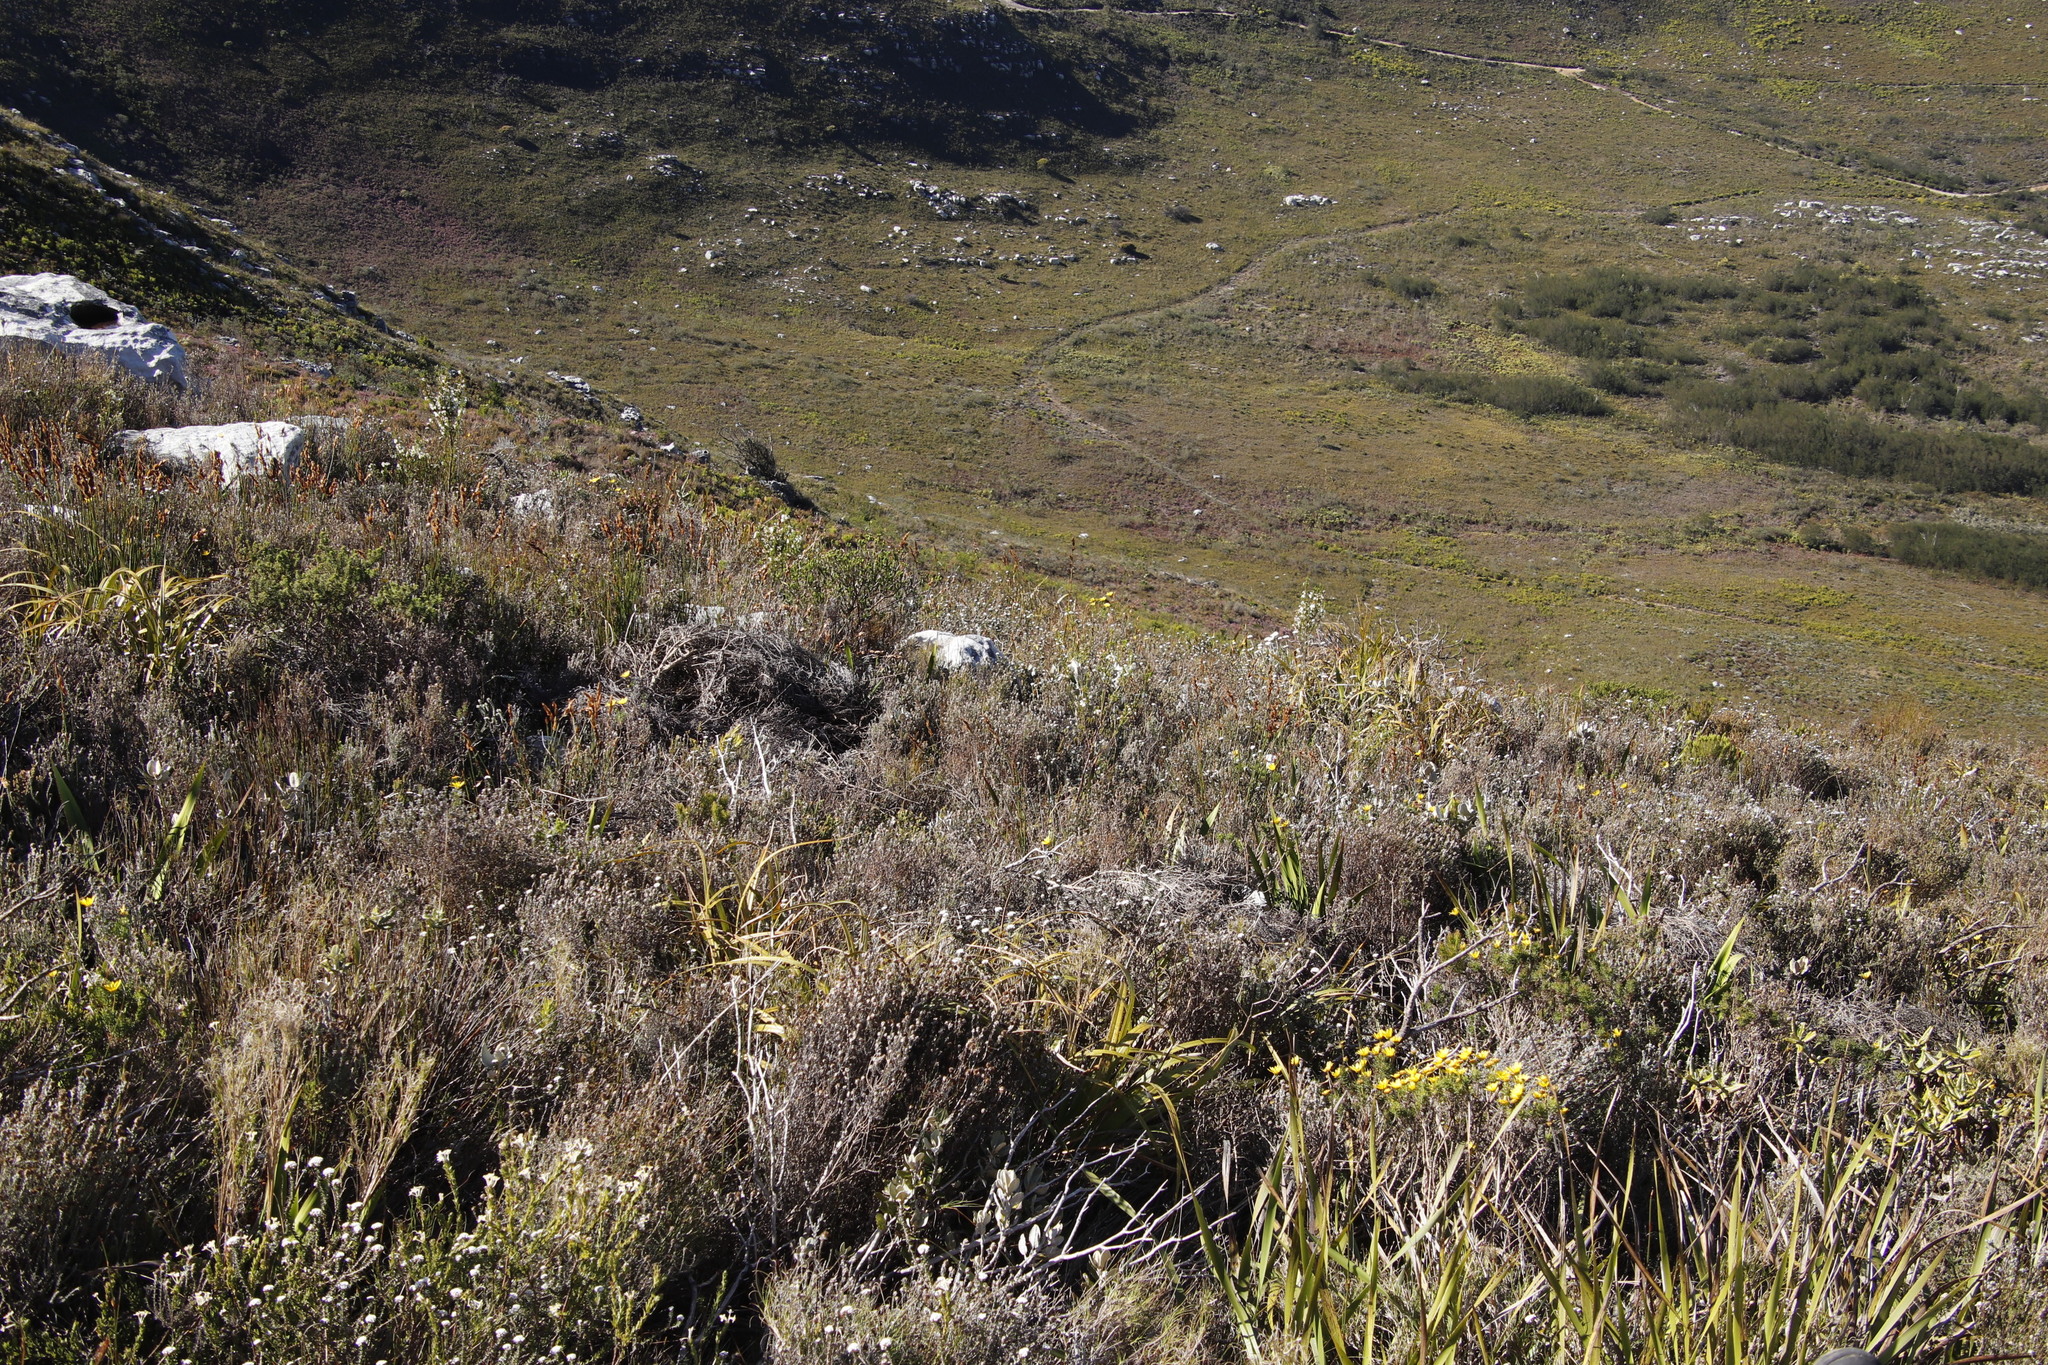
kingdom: Plantae
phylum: Tracheophyta
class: Magnoliopsida
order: Ericales
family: Ericaceae
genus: Erica
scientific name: Erica physodes
